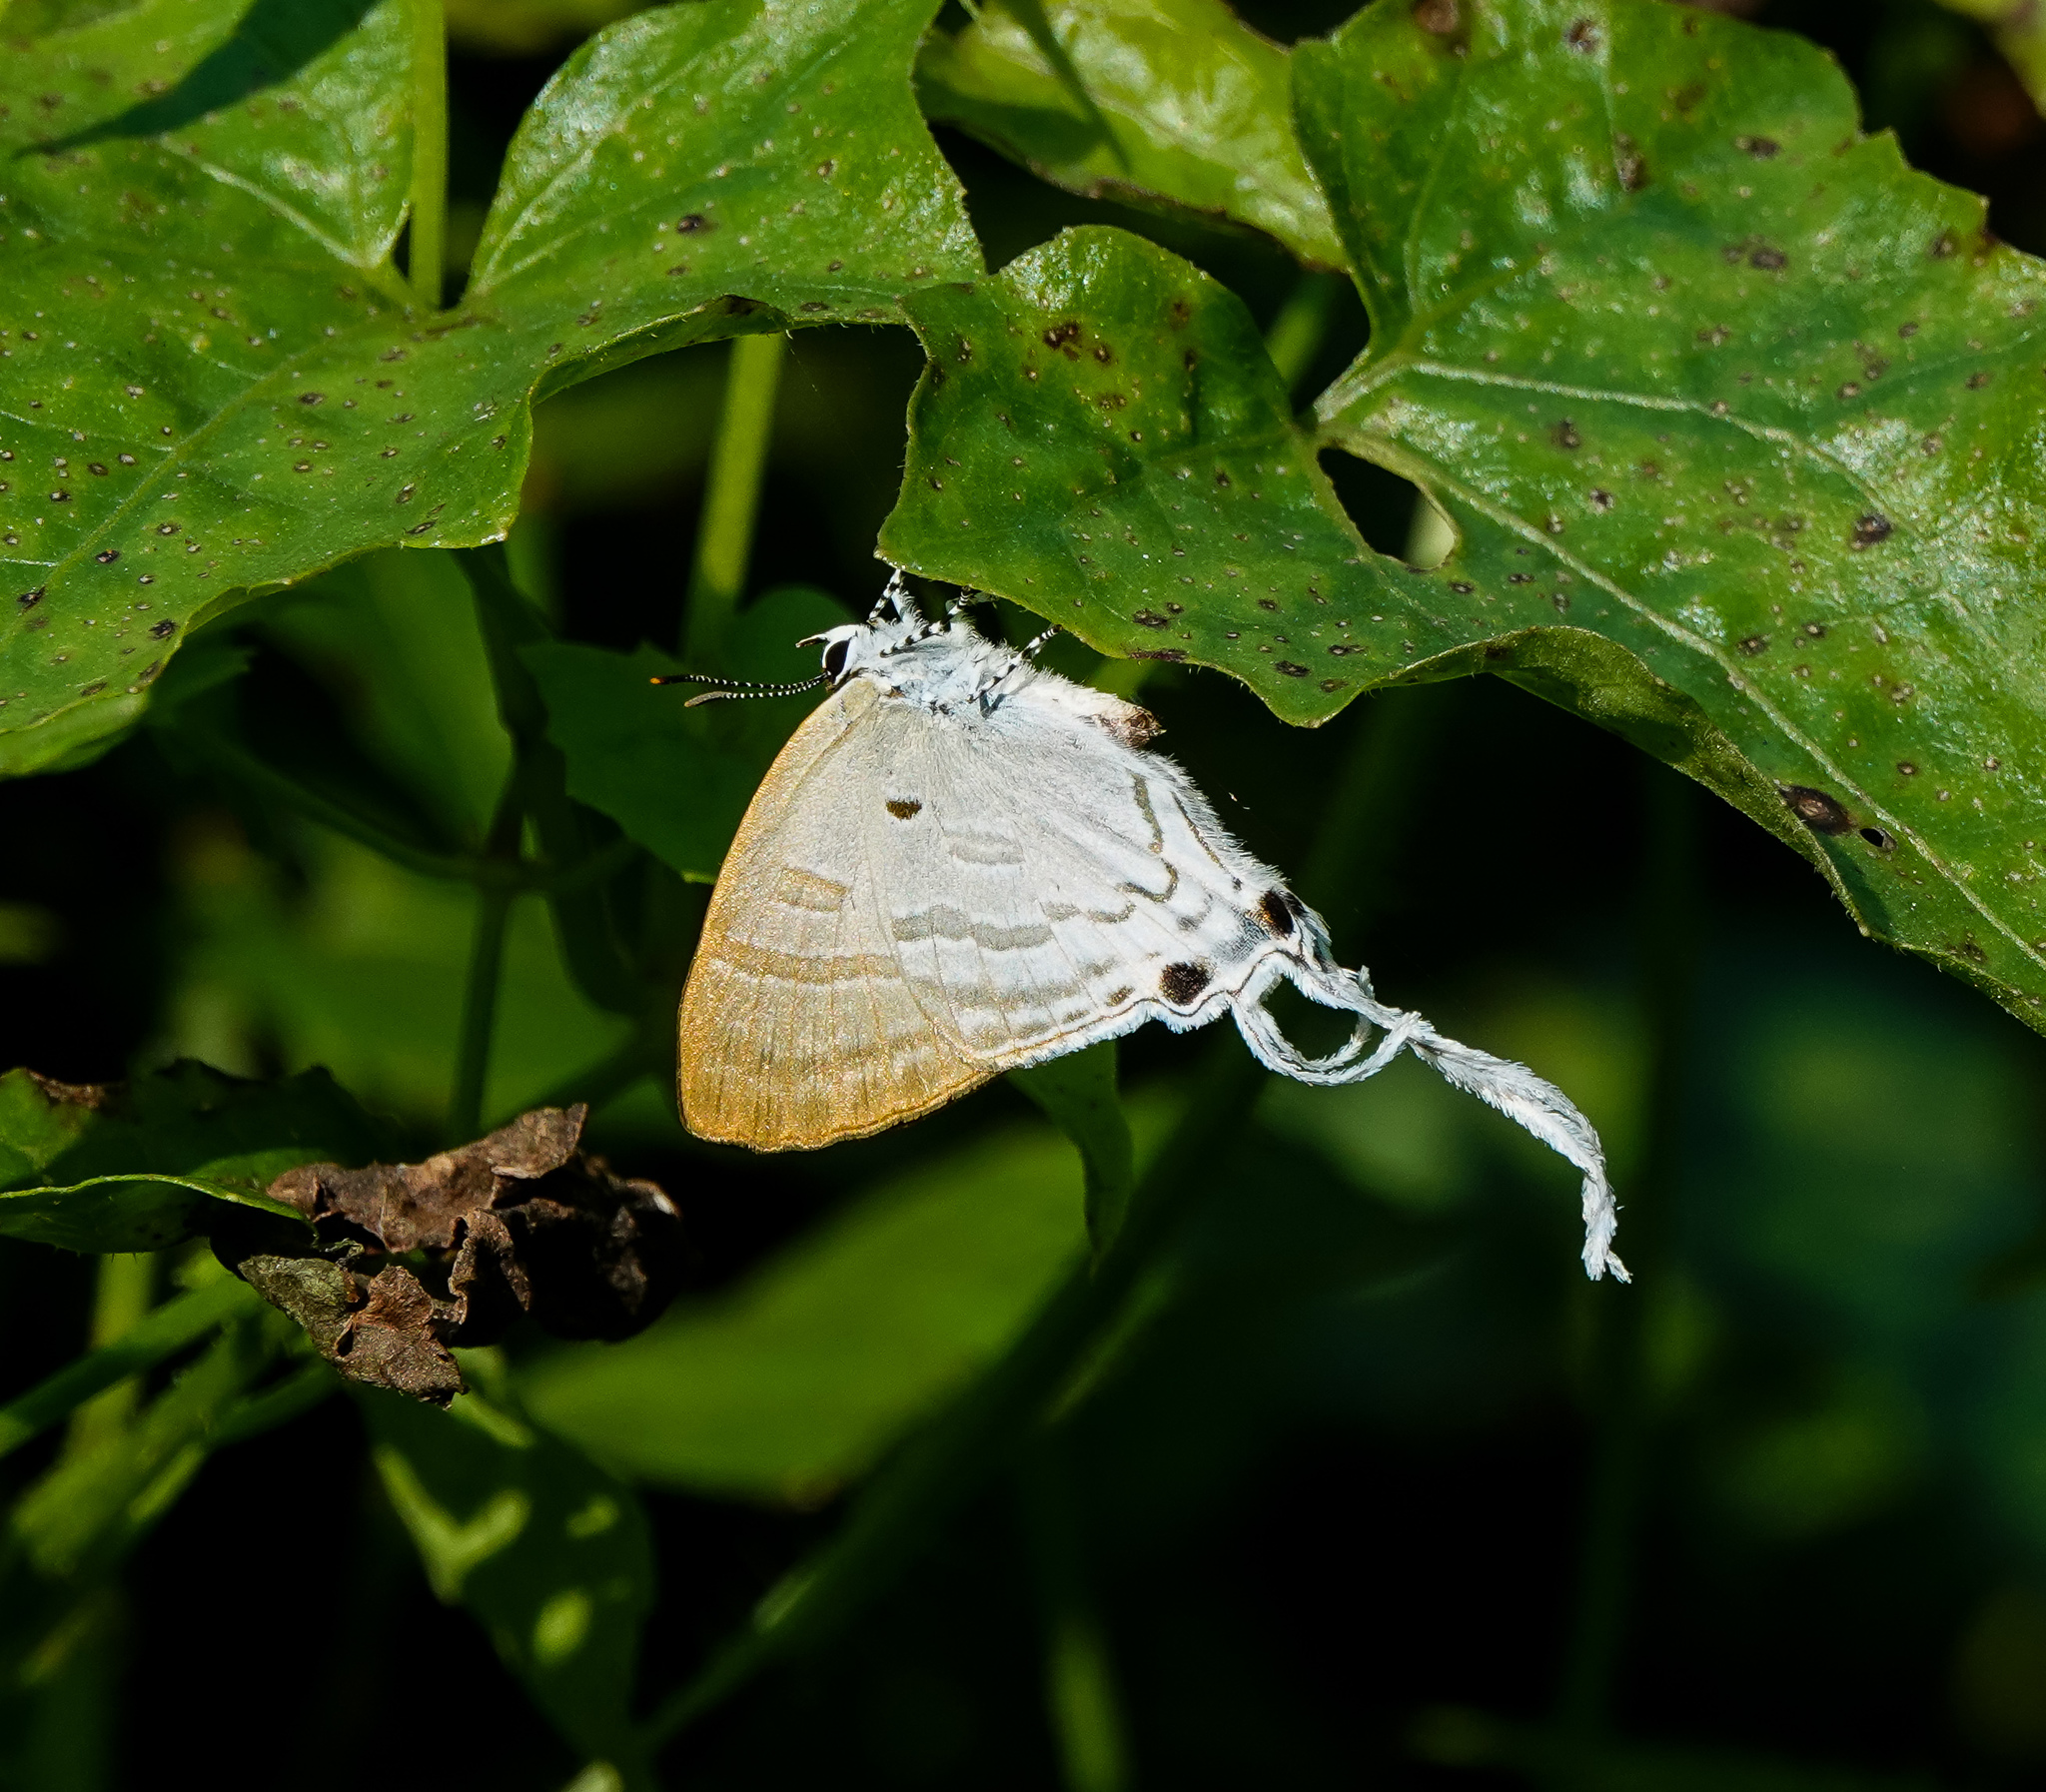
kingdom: Animalia
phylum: Arthropoda
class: Insecta
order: Lepidoptera
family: Lycaenidae
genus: Zeltus
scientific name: Zeltus amasa
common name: Fluffy tit
